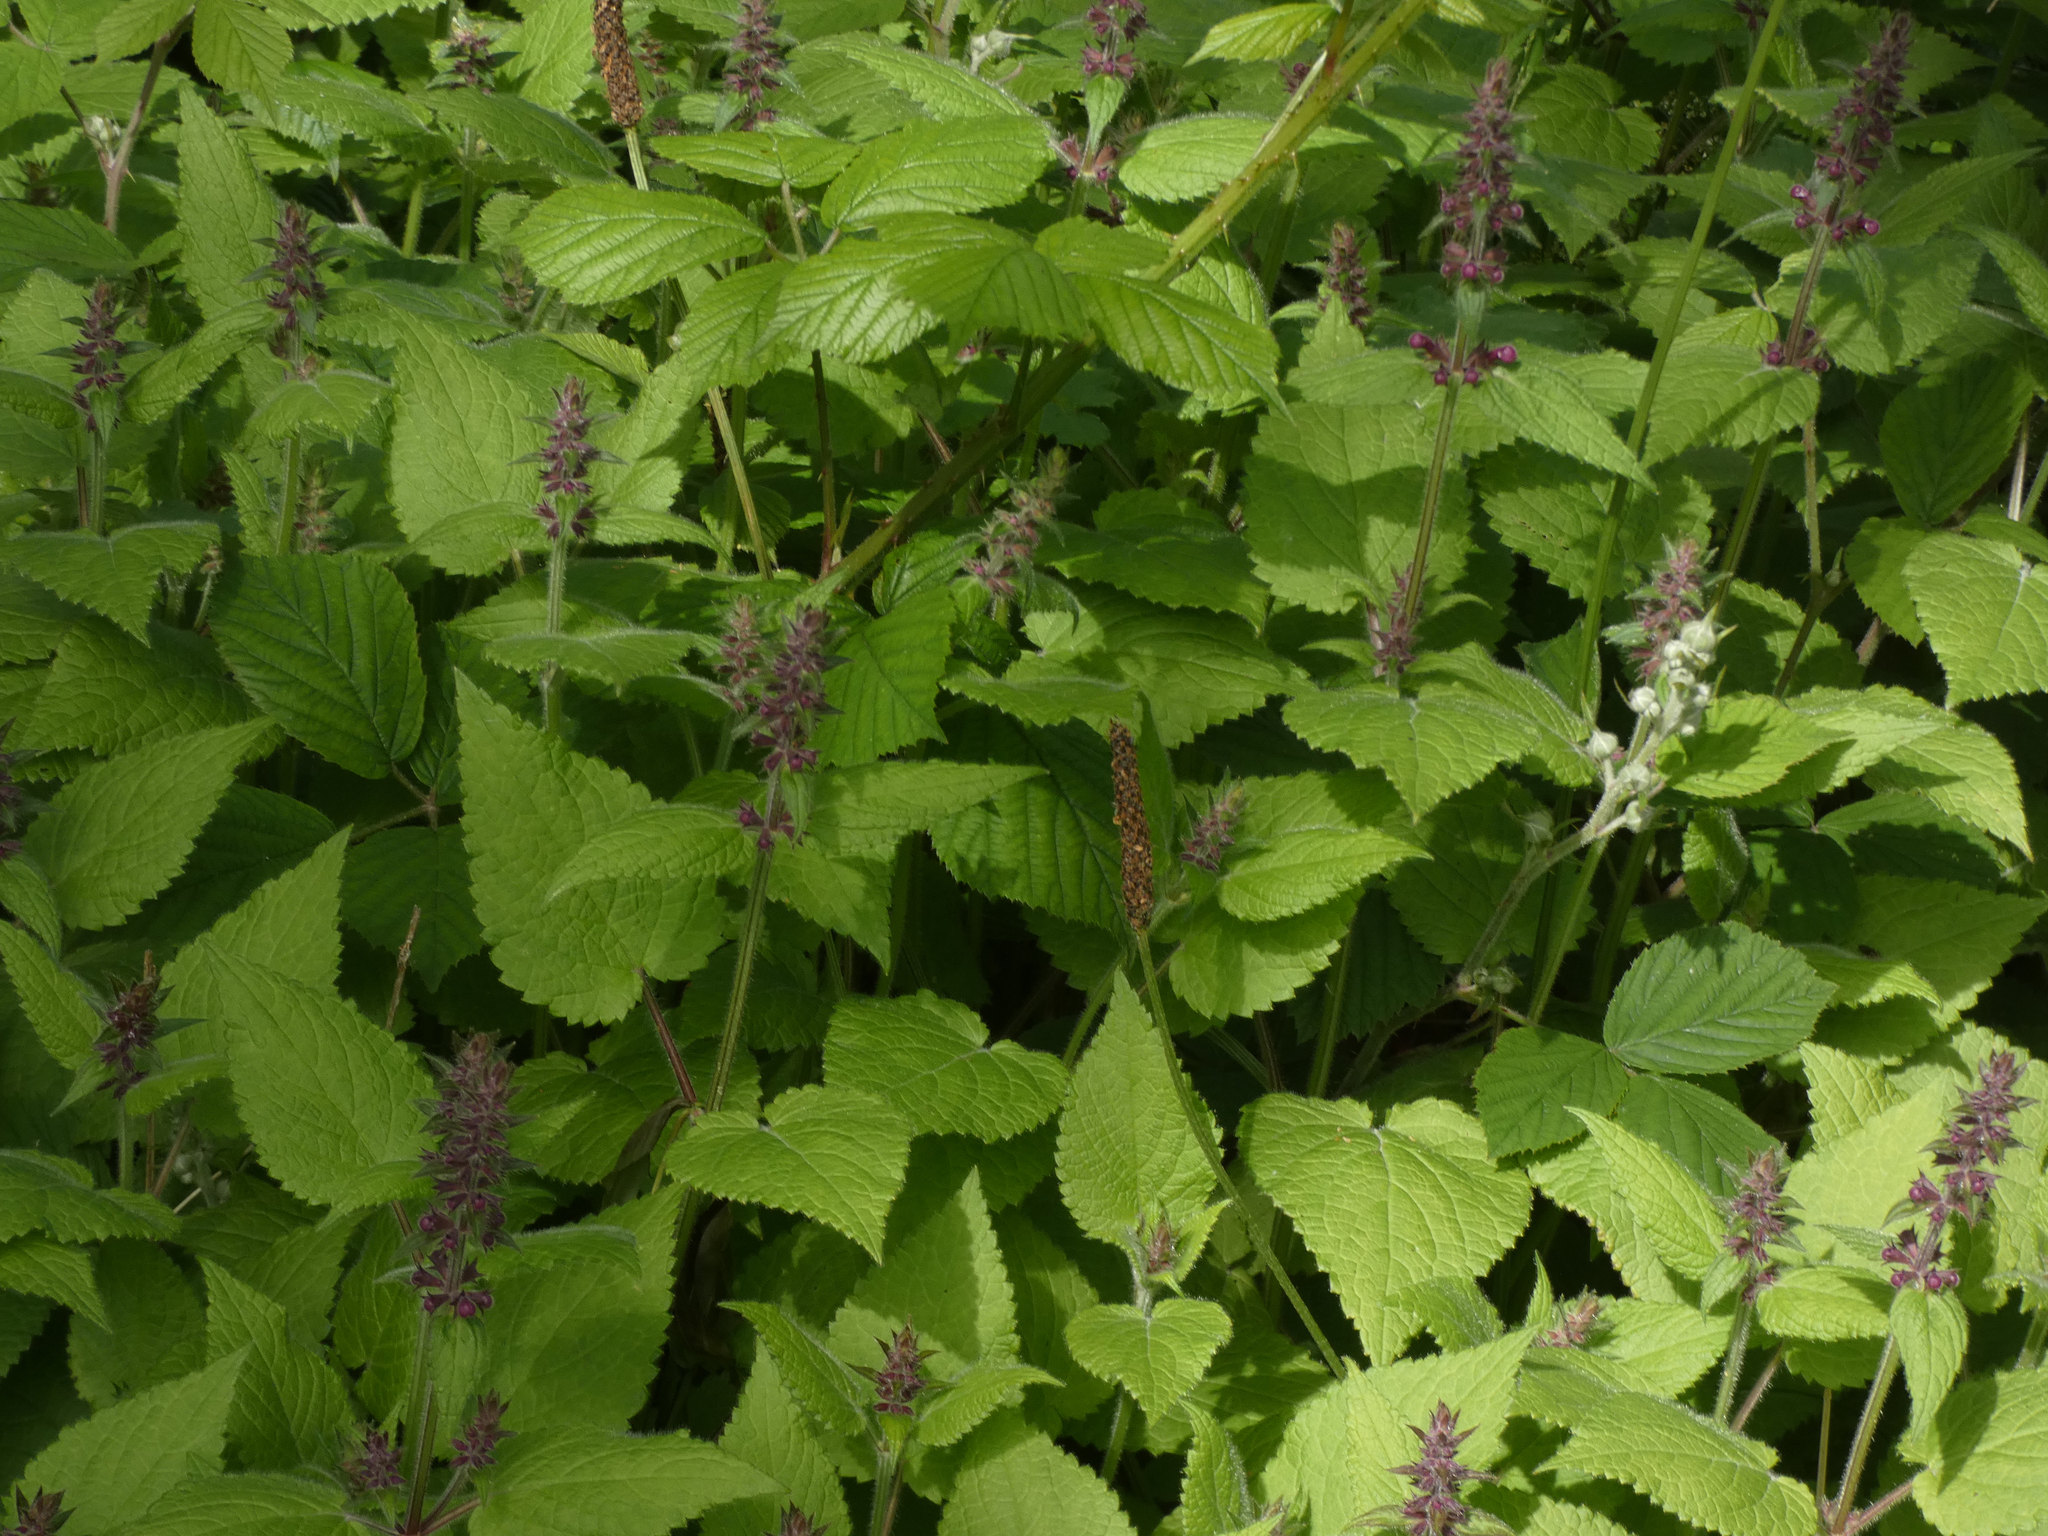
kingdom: Plantae
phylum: Tracheophyta
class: Magnoliopsida
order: Lamiales
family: Lamiaceae
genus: Stachys
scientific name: Stachys sylvatica
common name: Hedge woundwort
